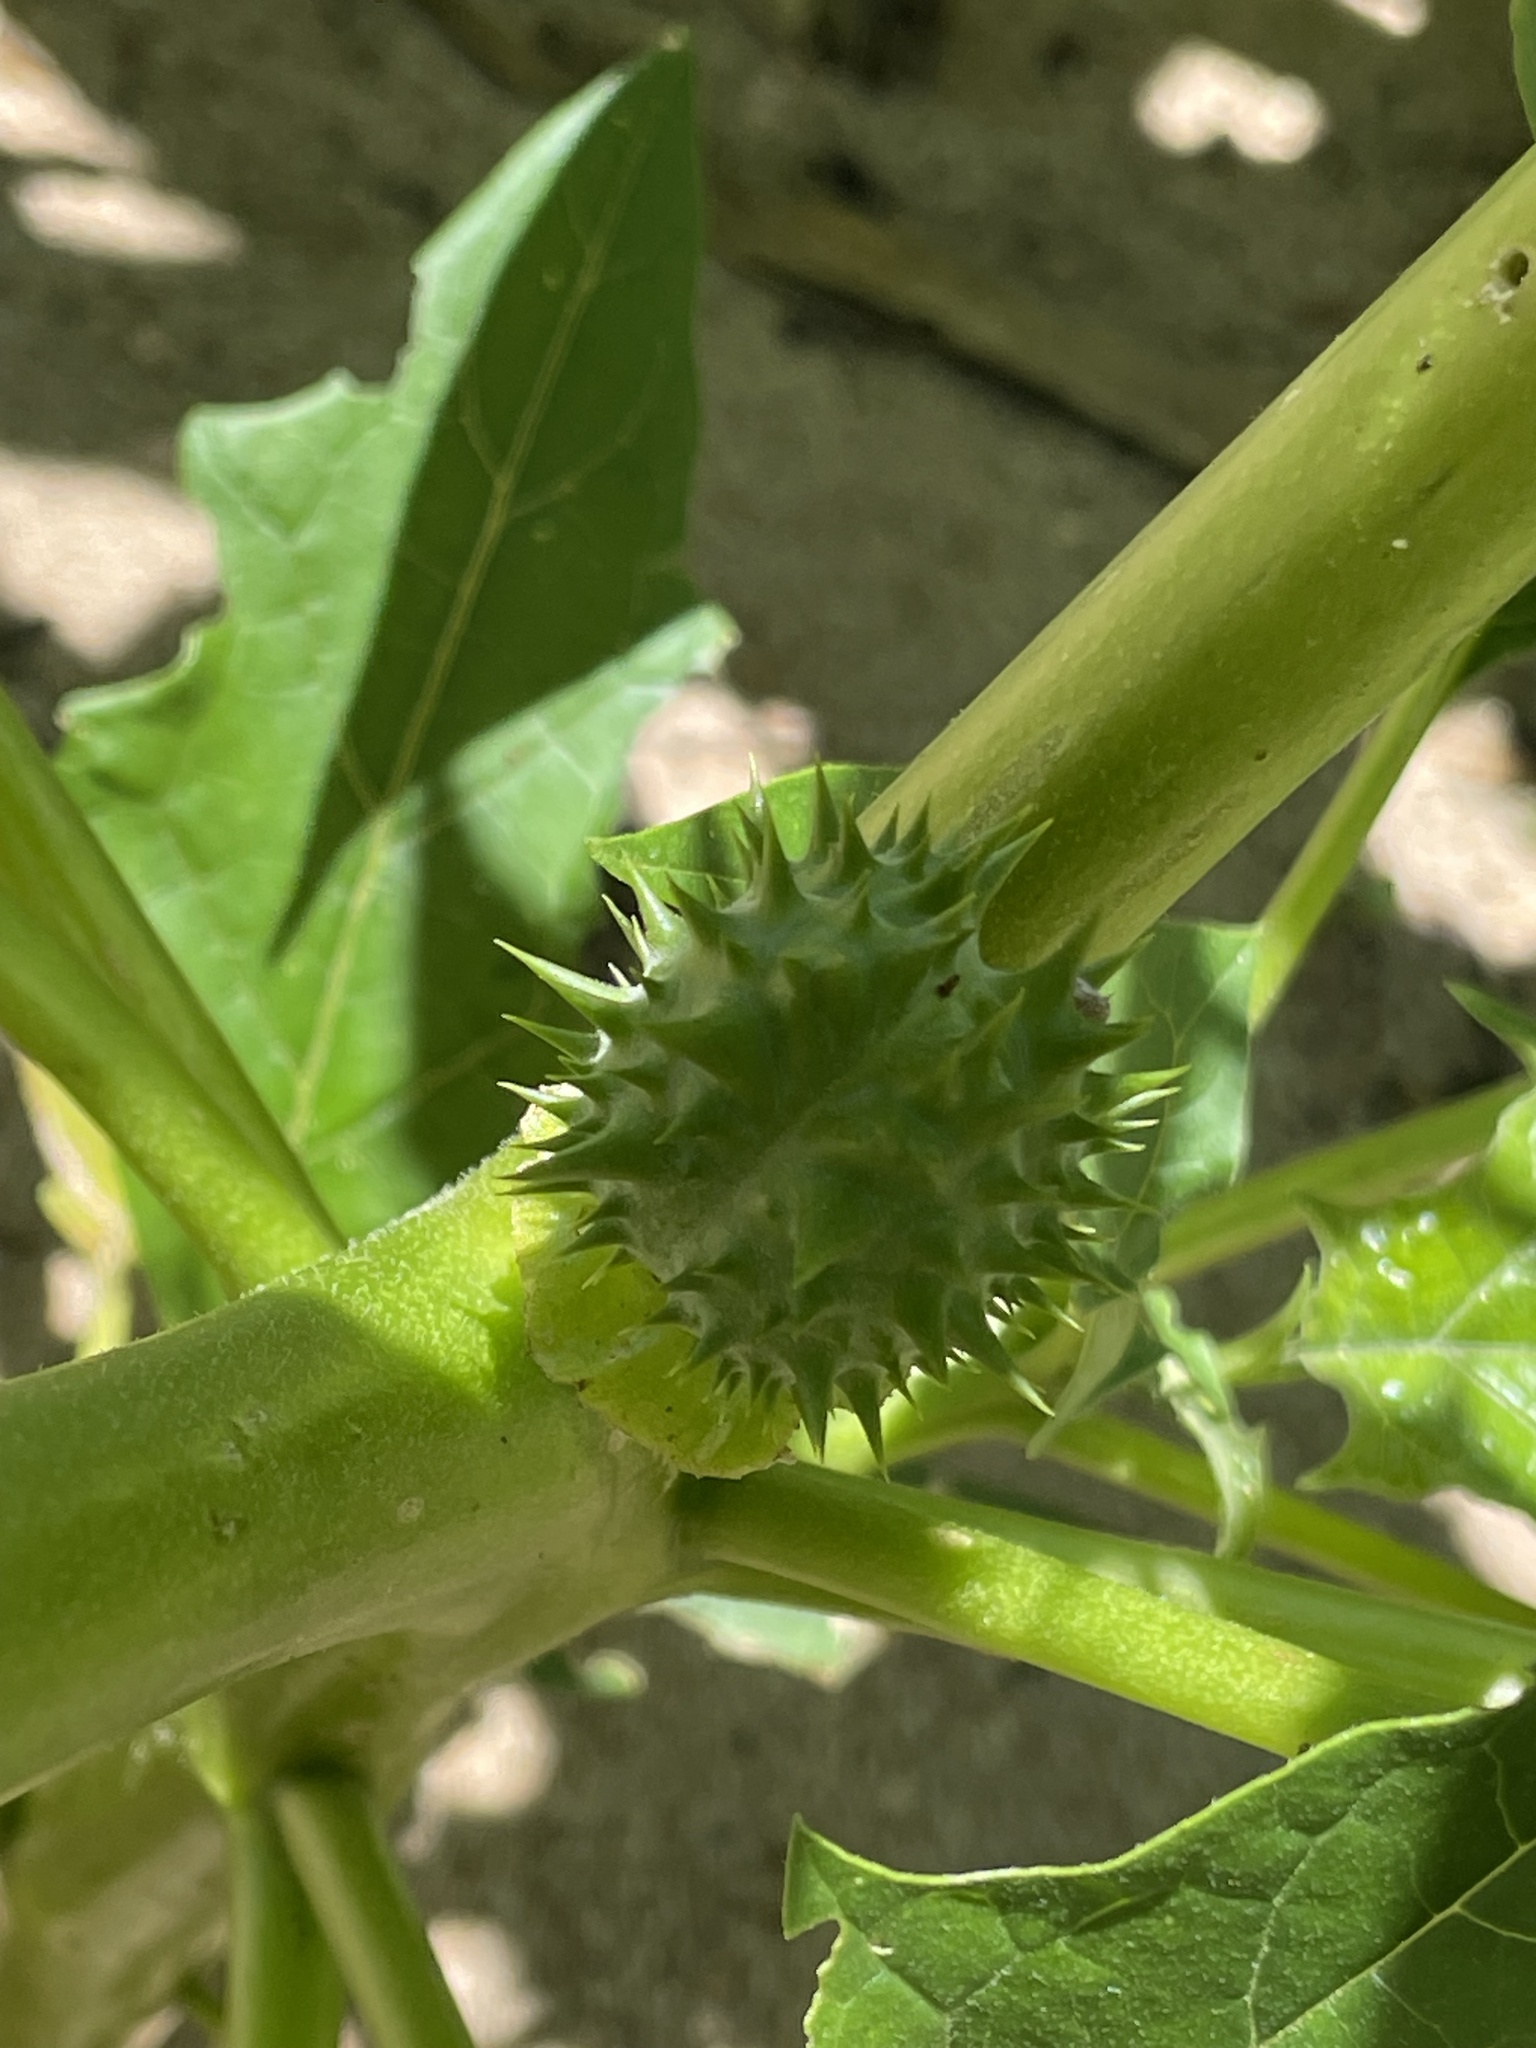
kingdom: Plantae
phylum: Tracheophyta
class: Magnoliopsida
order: Solanales
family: Solanaceae
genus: Datura
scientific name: Datura stramonium
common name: Thorn-apple
